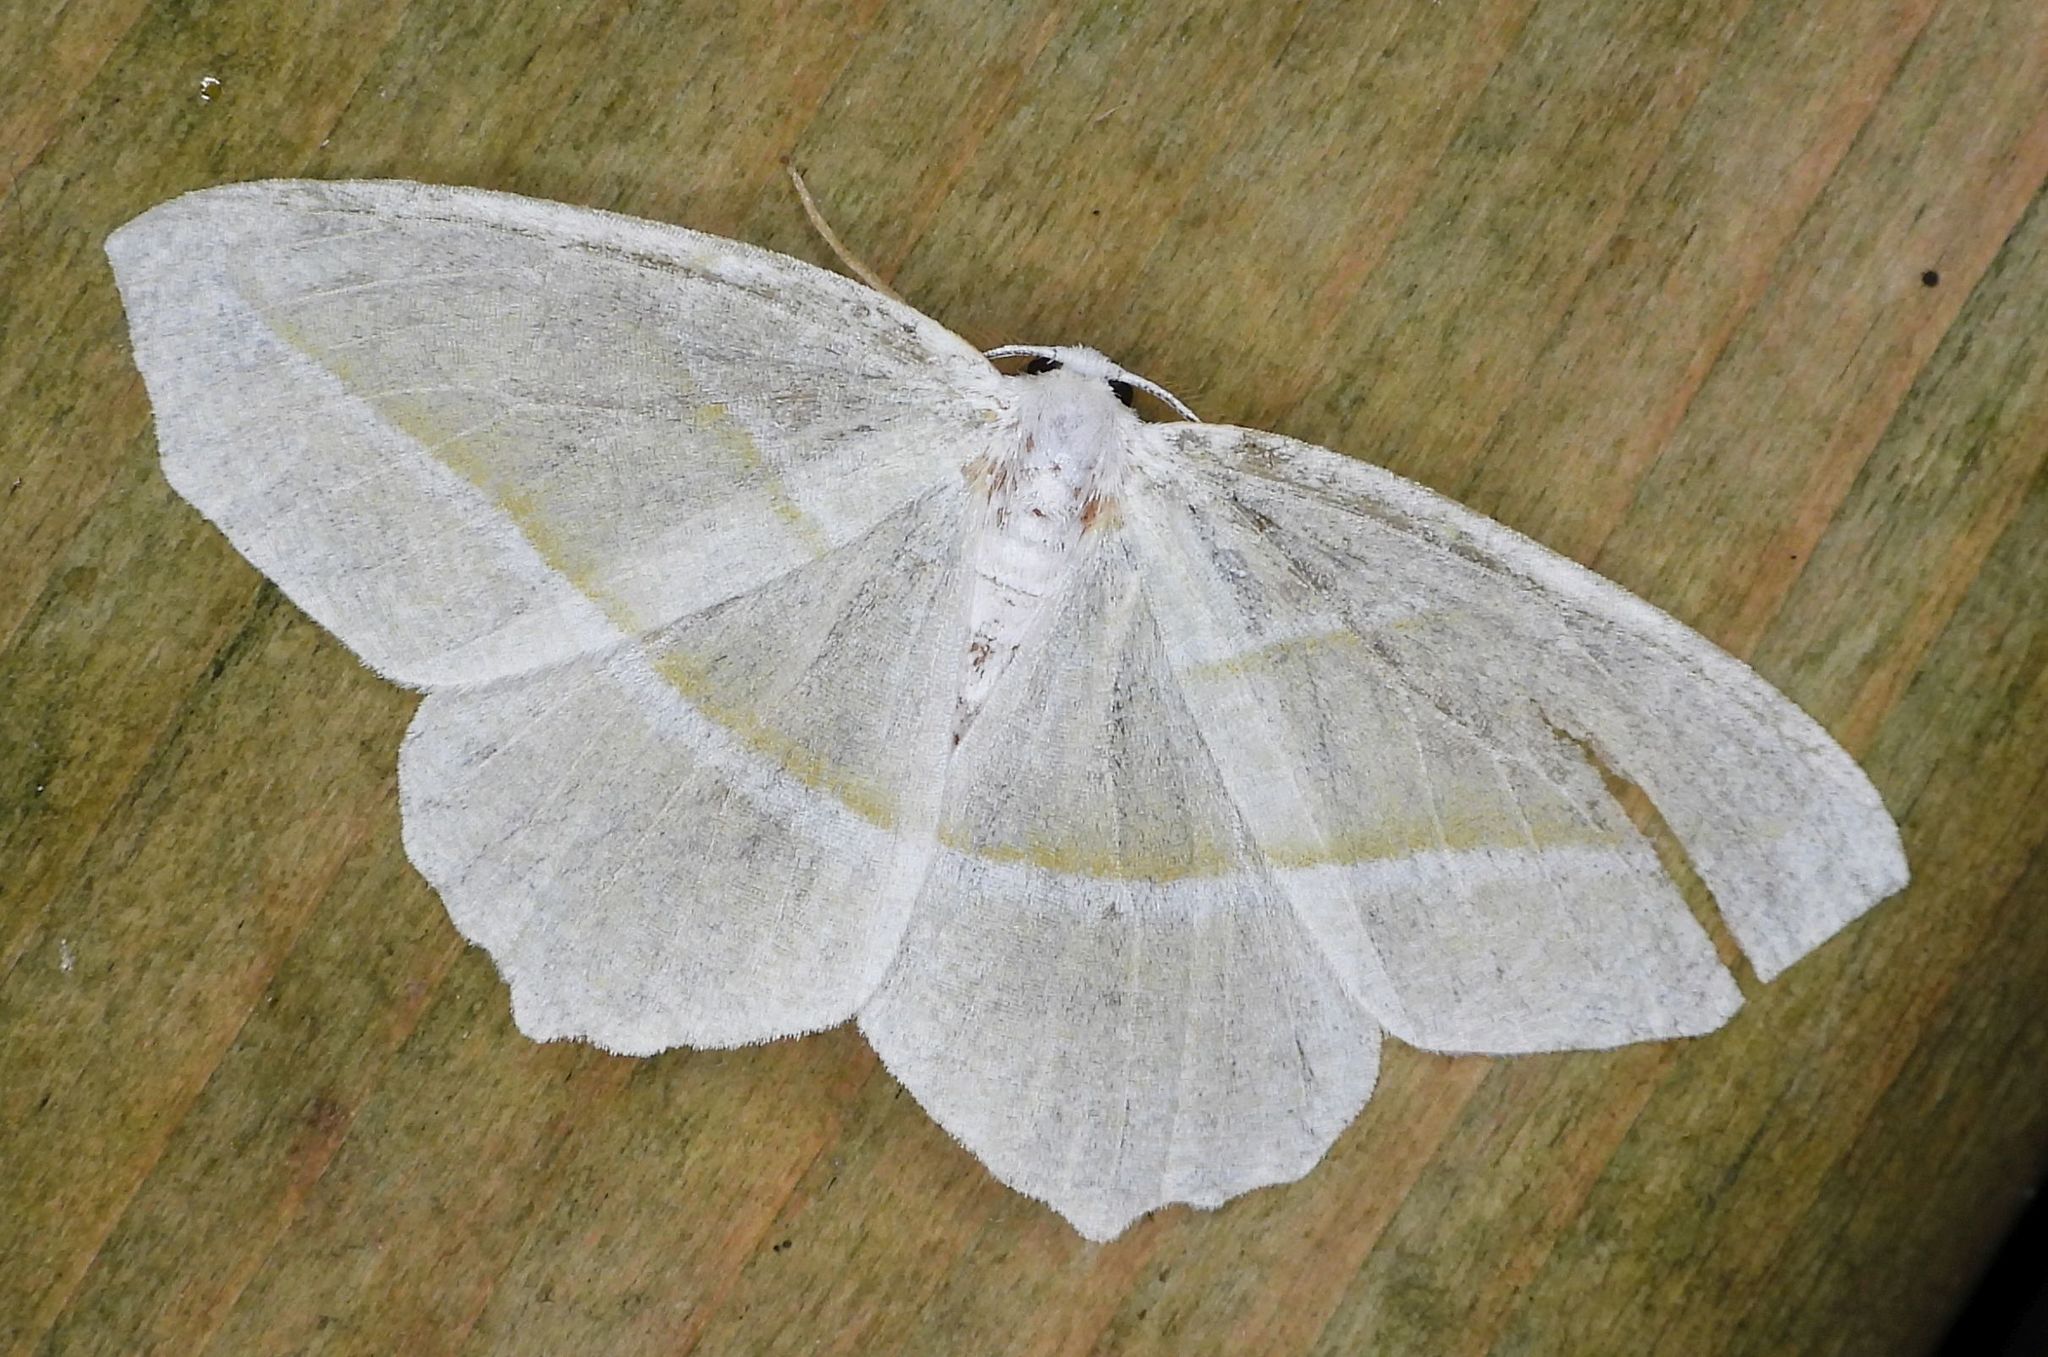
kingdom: Animalia
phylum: Arthropoda
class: Insecta
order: Lepidoptera
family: Geometridae
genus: Campaea
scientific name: Campaea perlata
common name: Fringed looper
